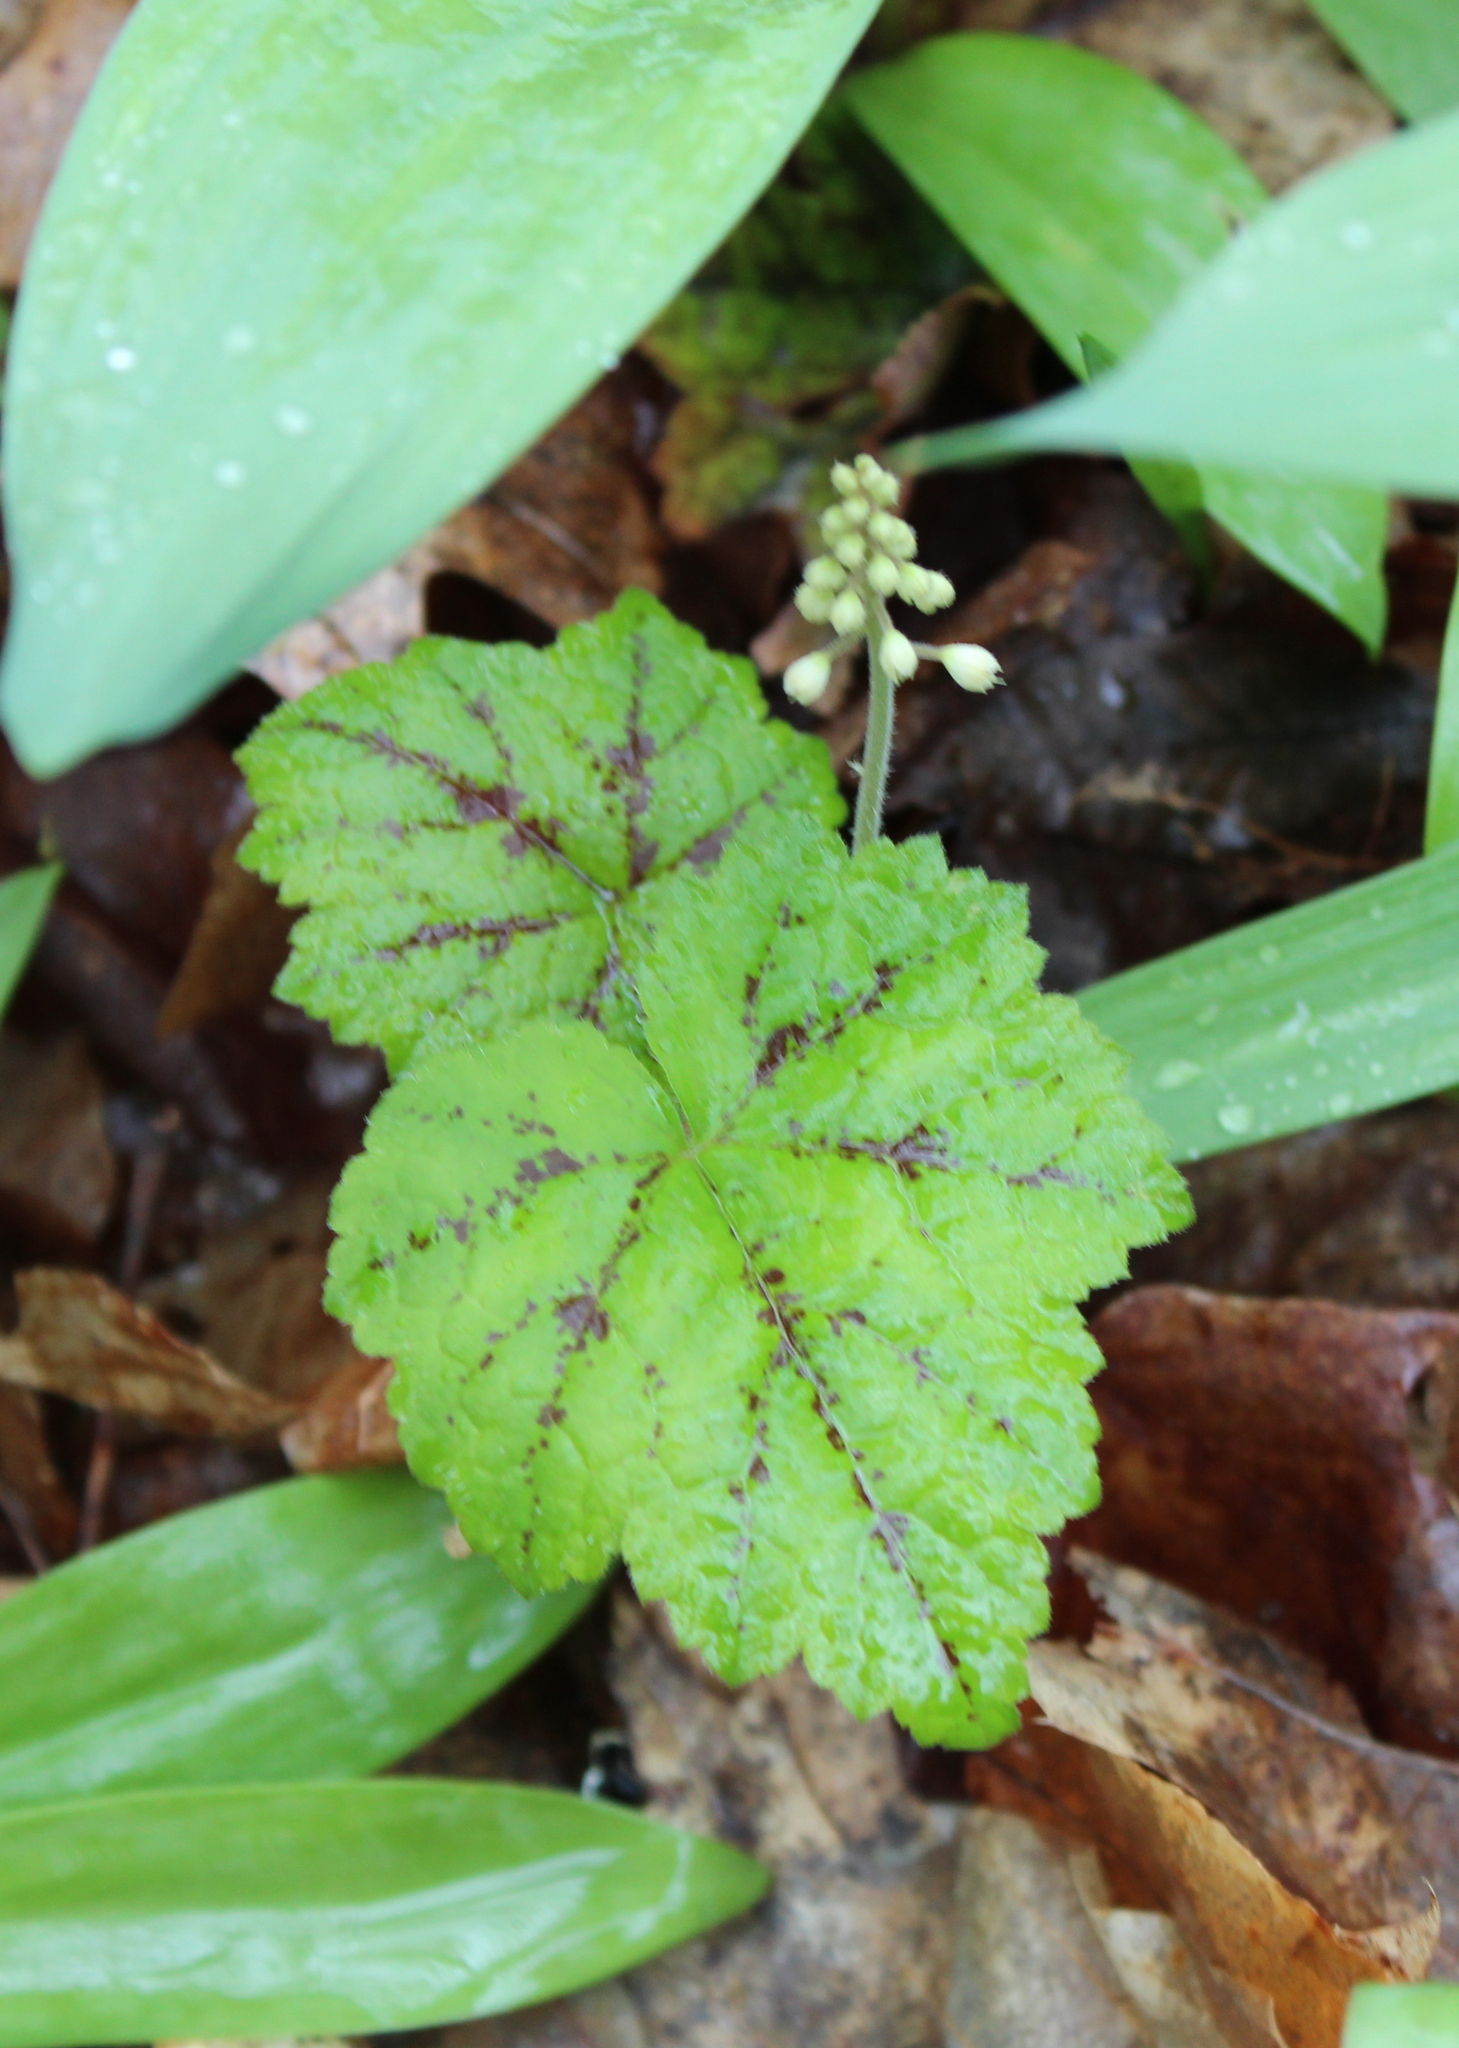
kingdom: Plantae
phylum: Tracheophyta
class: Magnoliopsida
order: Saxifragales
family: Saxifragaceae
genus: Tiarella
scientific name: Tiarella stolonifera
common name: Stoloniferous foamflower
